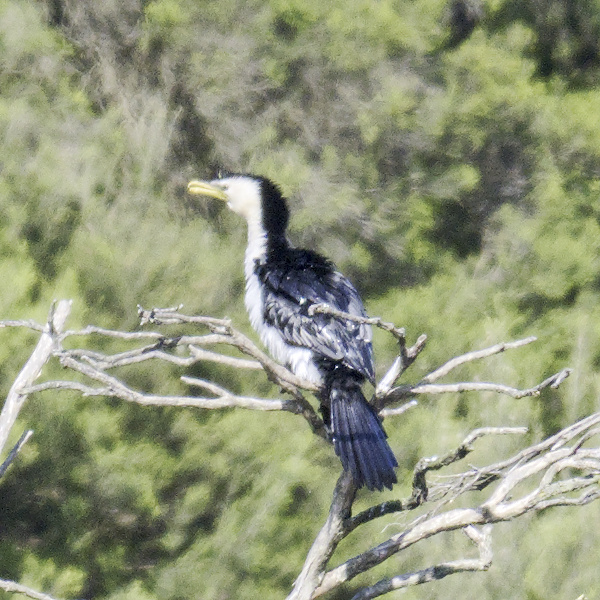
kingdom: Animalia
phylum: Chordata
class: Aves
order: Suliformes
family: Phalacrocoracidae
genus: Microcarbo
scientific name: Microcarbo melanoleucos
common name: Little pied cormorant
